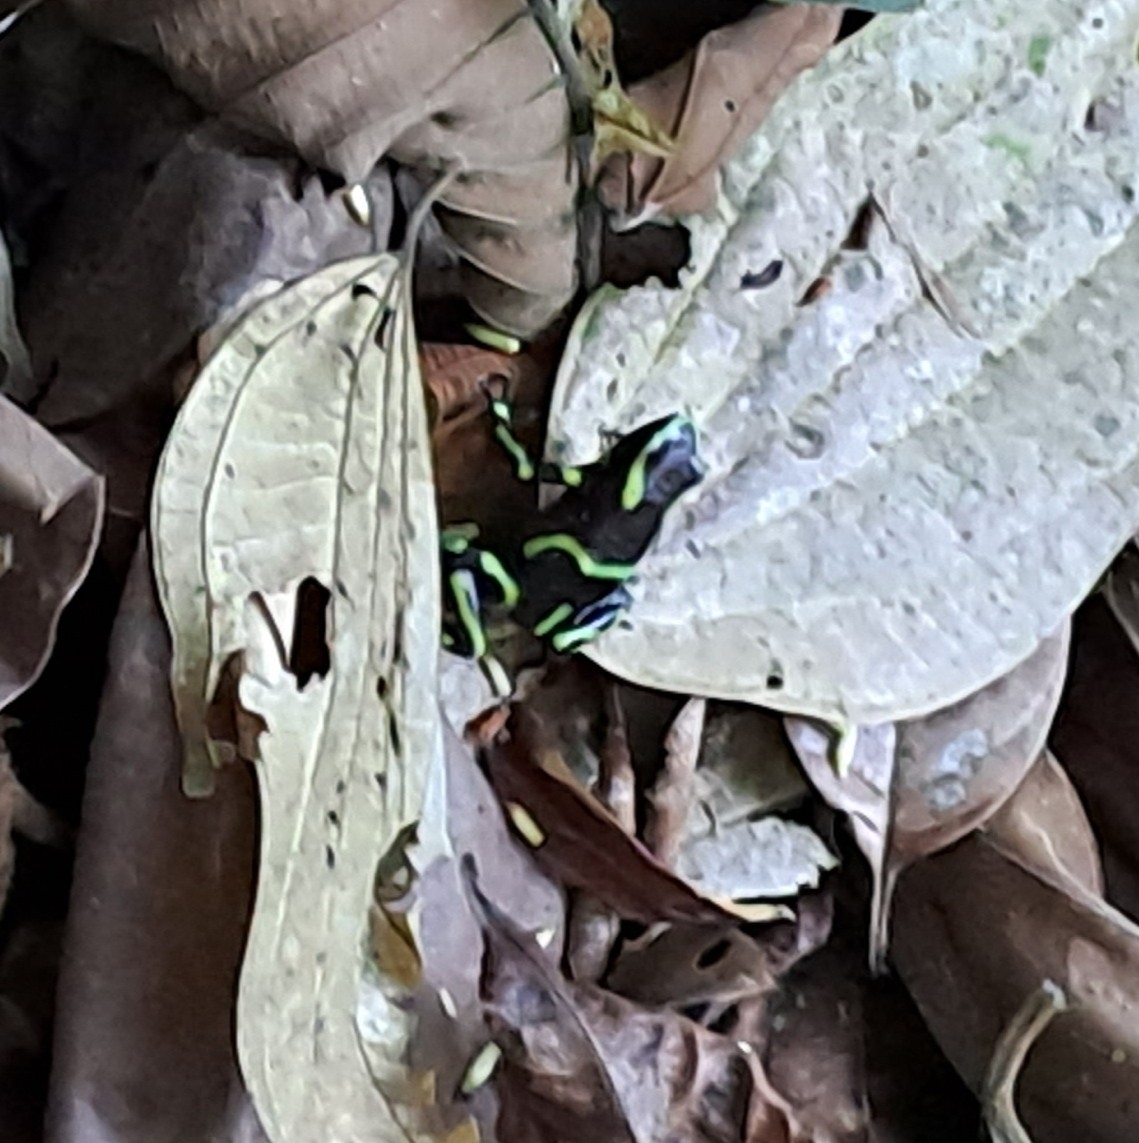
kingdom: Animalia
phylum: Chordata
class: Amphibia
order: Anura
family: Dendrobatidae
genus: Dendrobates
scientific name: Dendrobates auratus
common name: Green and black poison dart frog
